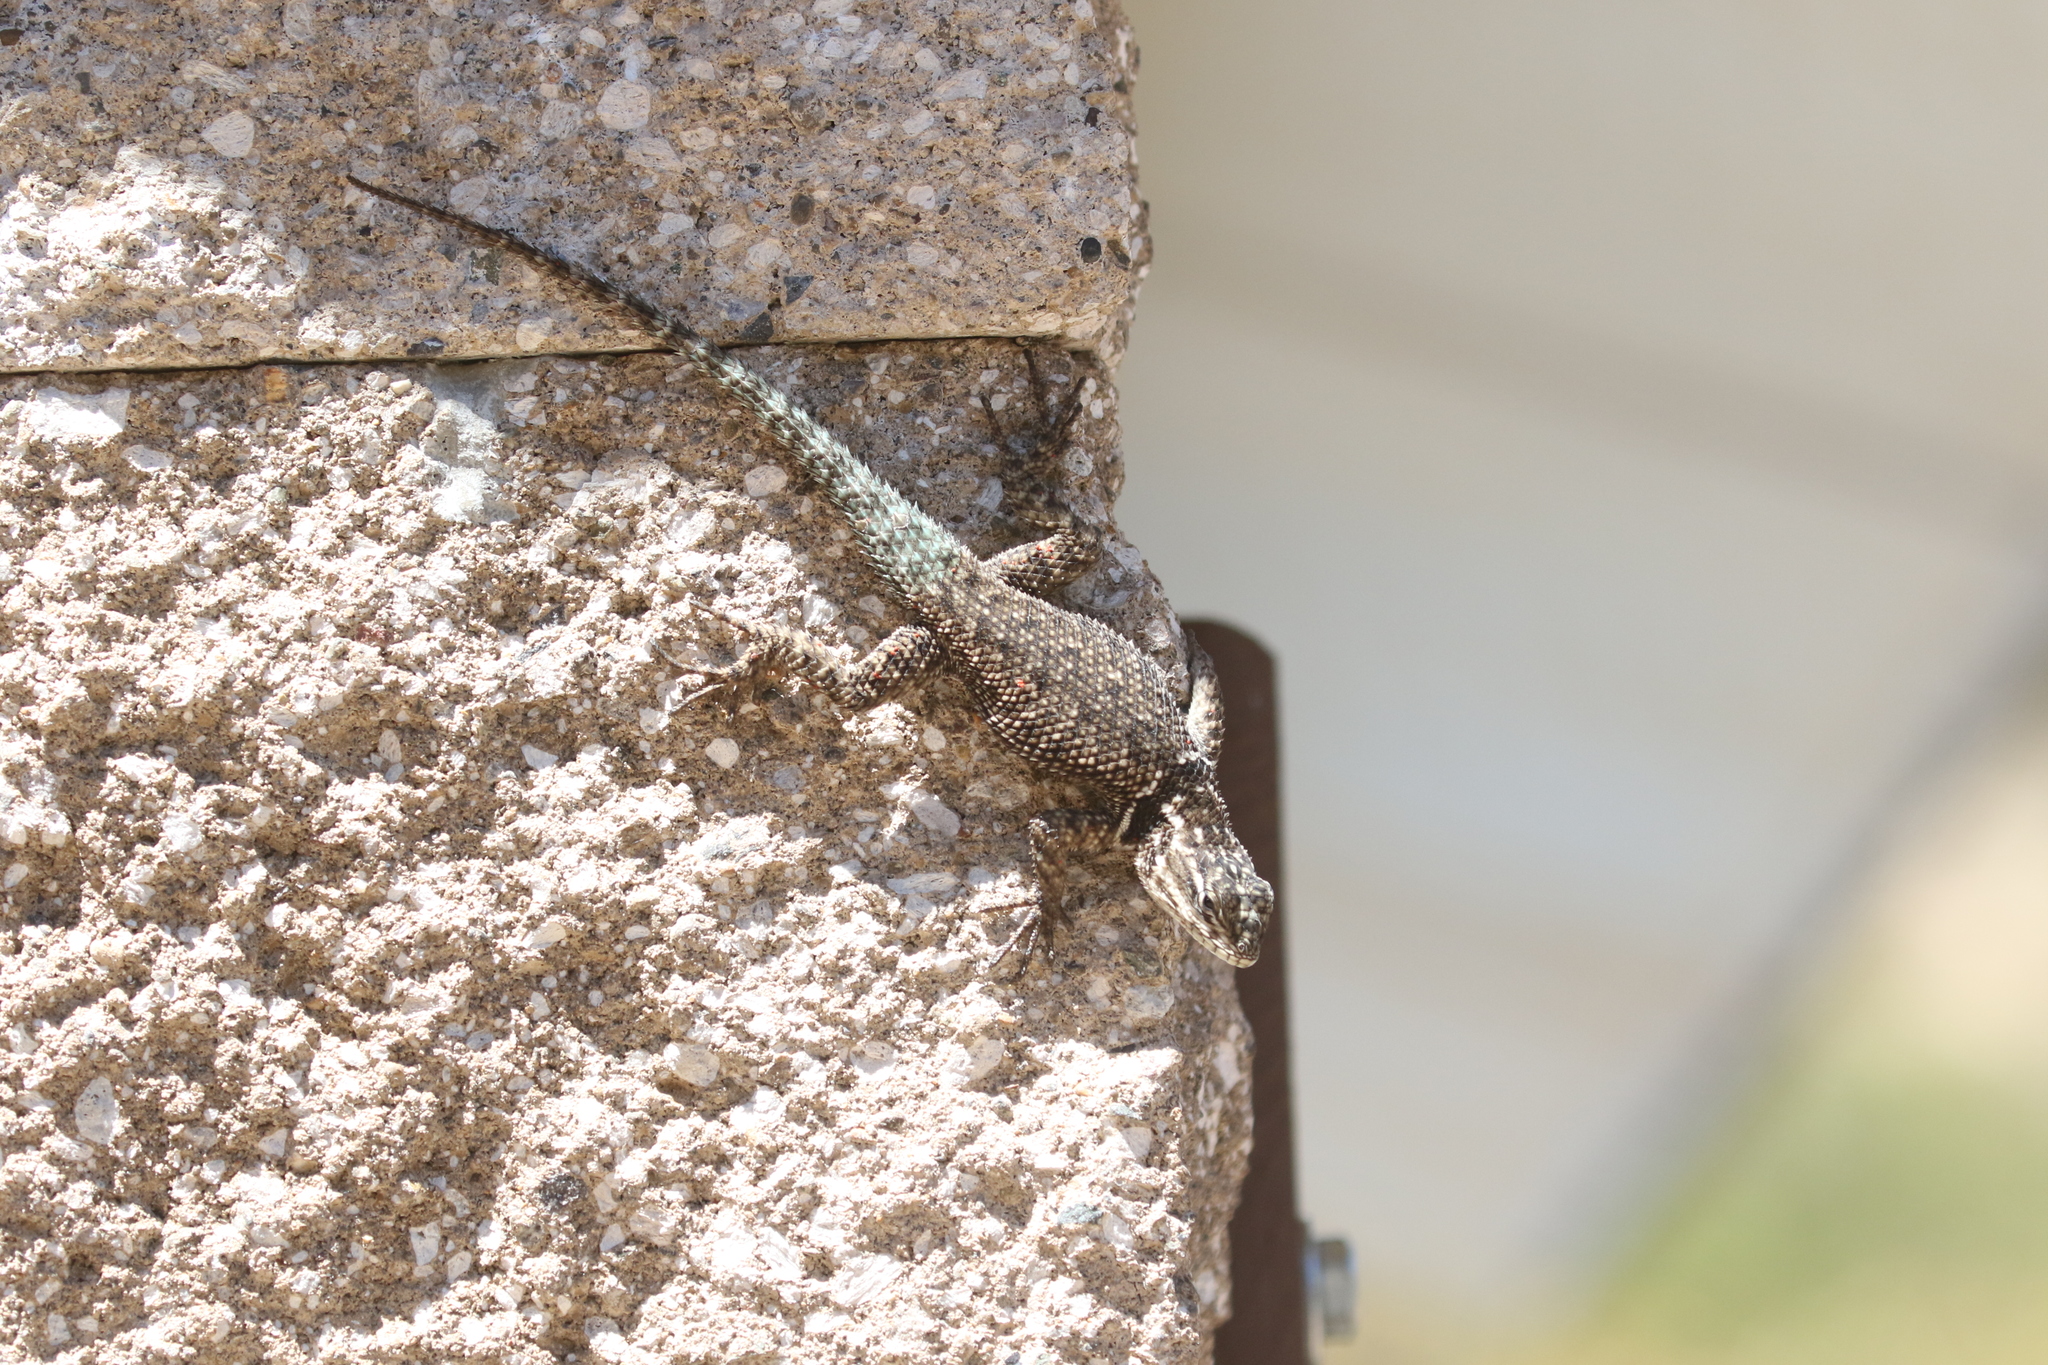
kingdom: Animalia
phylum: Chordata
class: Squamata
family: Phrynosomatidae
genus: Sceloporus
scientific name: Sceloporus jarrovii
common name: Yarrow's spiny lizard
